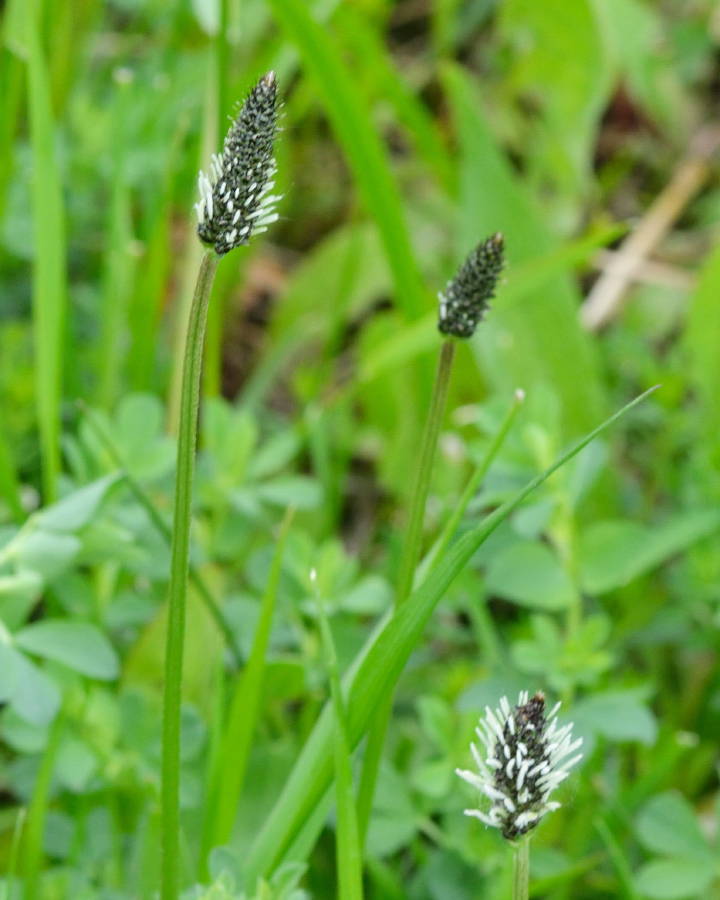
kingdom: Plantae
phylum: Tracheophyta
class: Magnoliopsida
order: Lamiales
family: Plantaginaceae
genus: Plantago
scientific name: Plantago lanceolata
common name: Ribwort plantain
